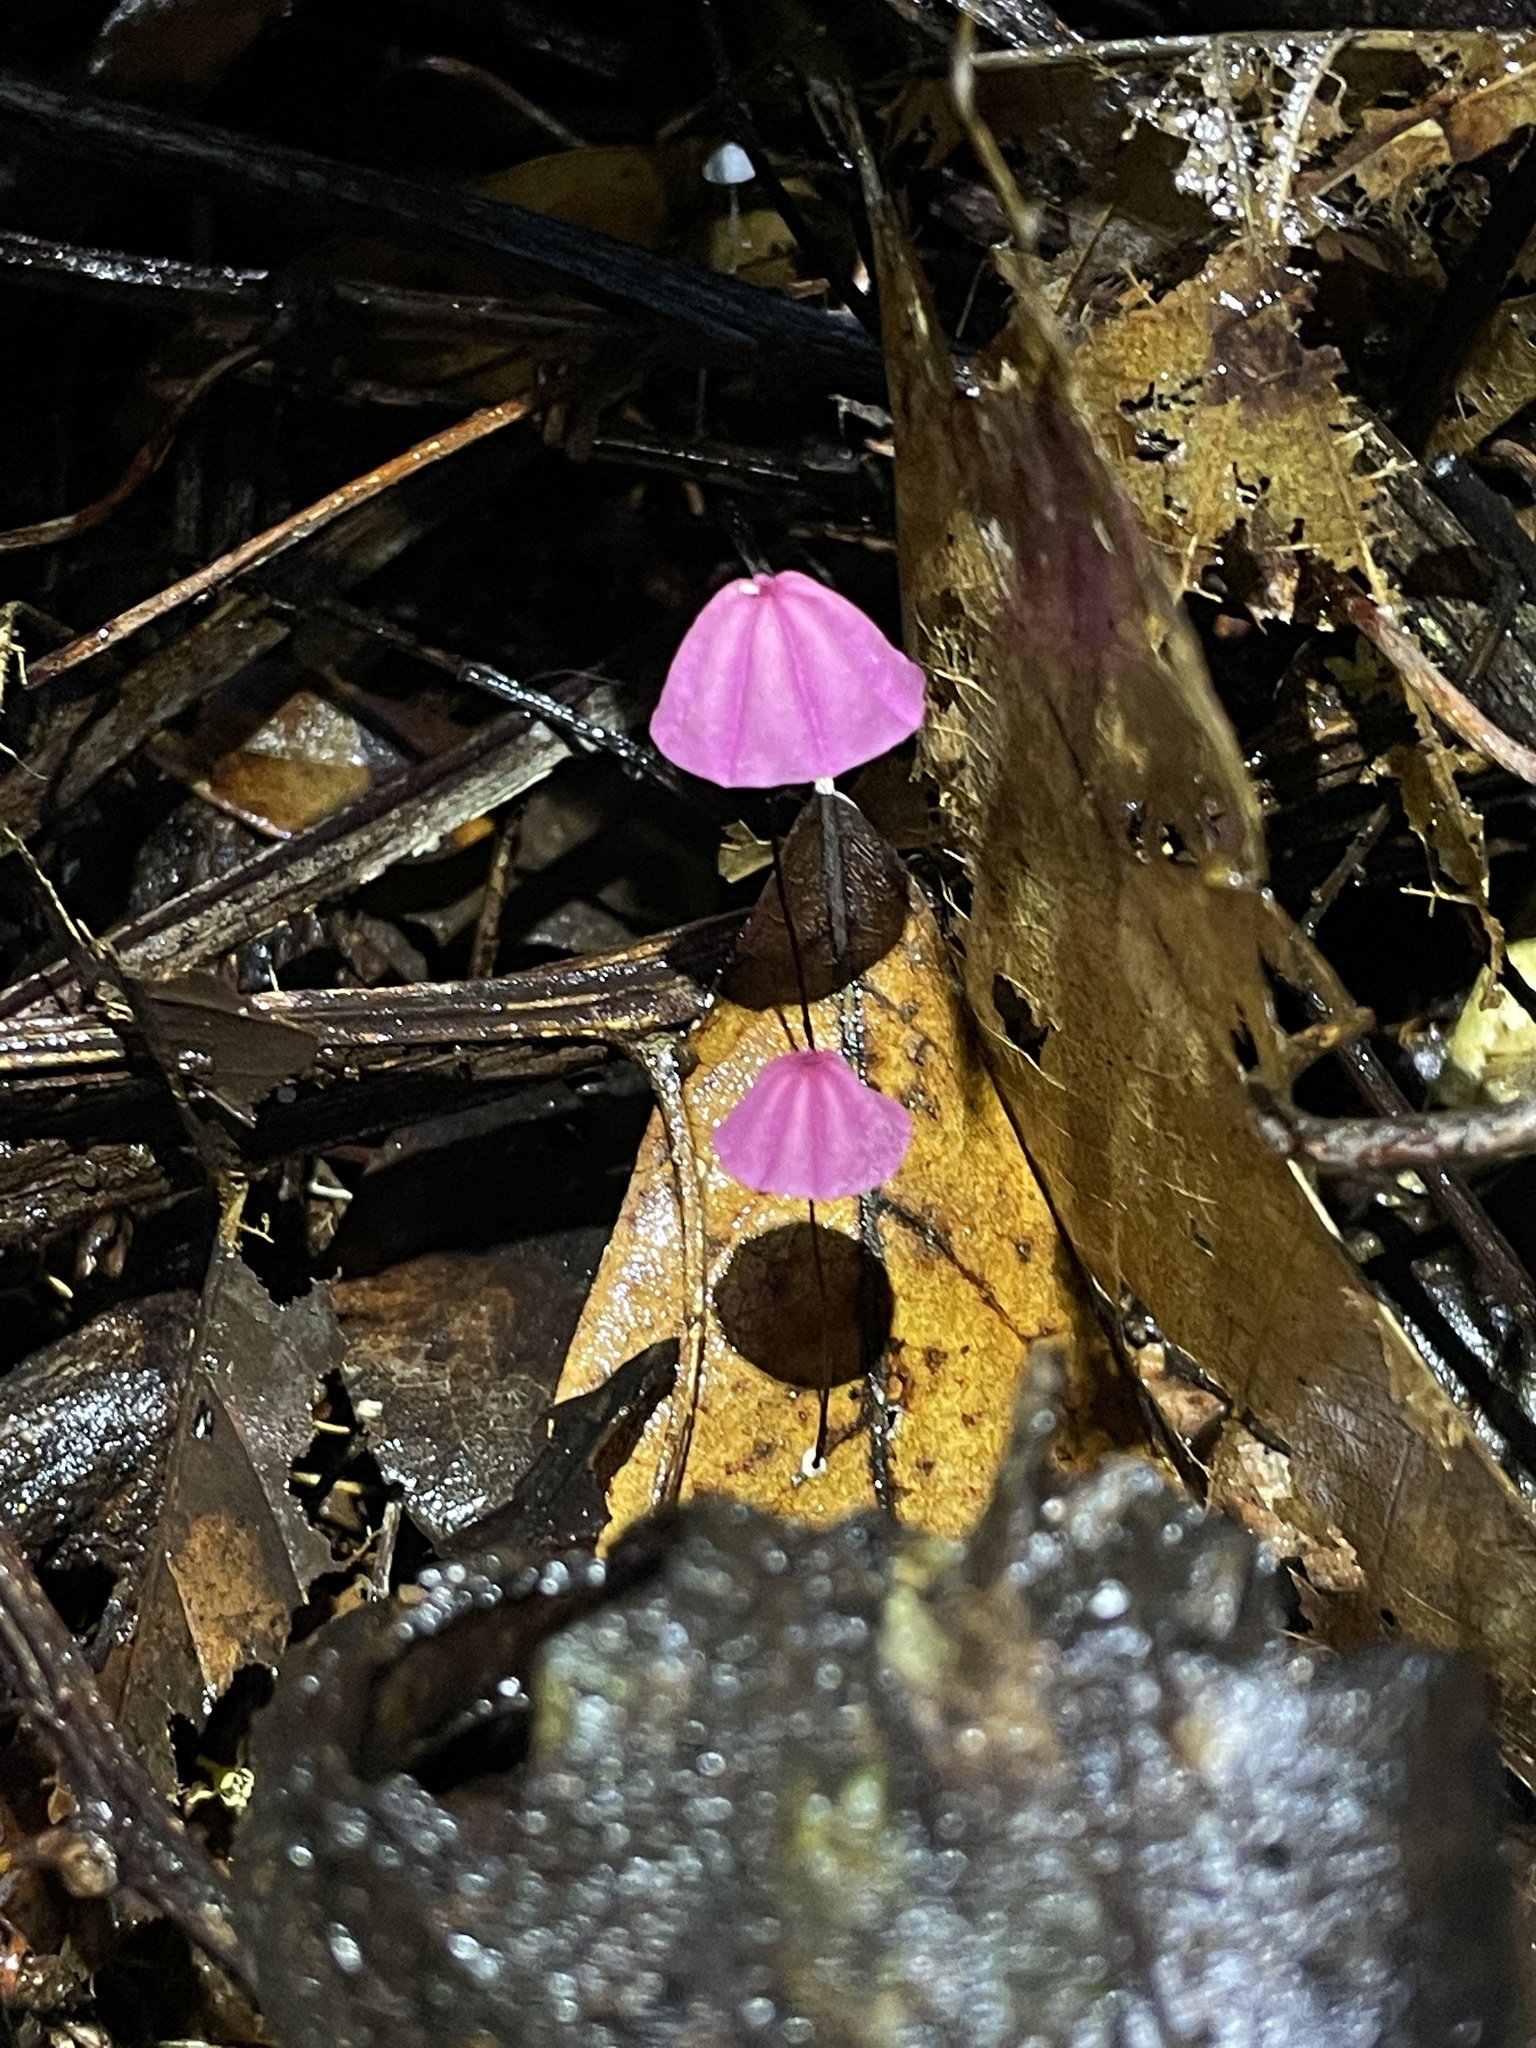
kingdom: Fungi
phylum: Basidiomycota
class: Agaricomycetes
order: Agaricales
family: Marasmiaceae
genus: Marasmius
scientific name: Marasmius haematocephalus
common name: Purple pinwheel
